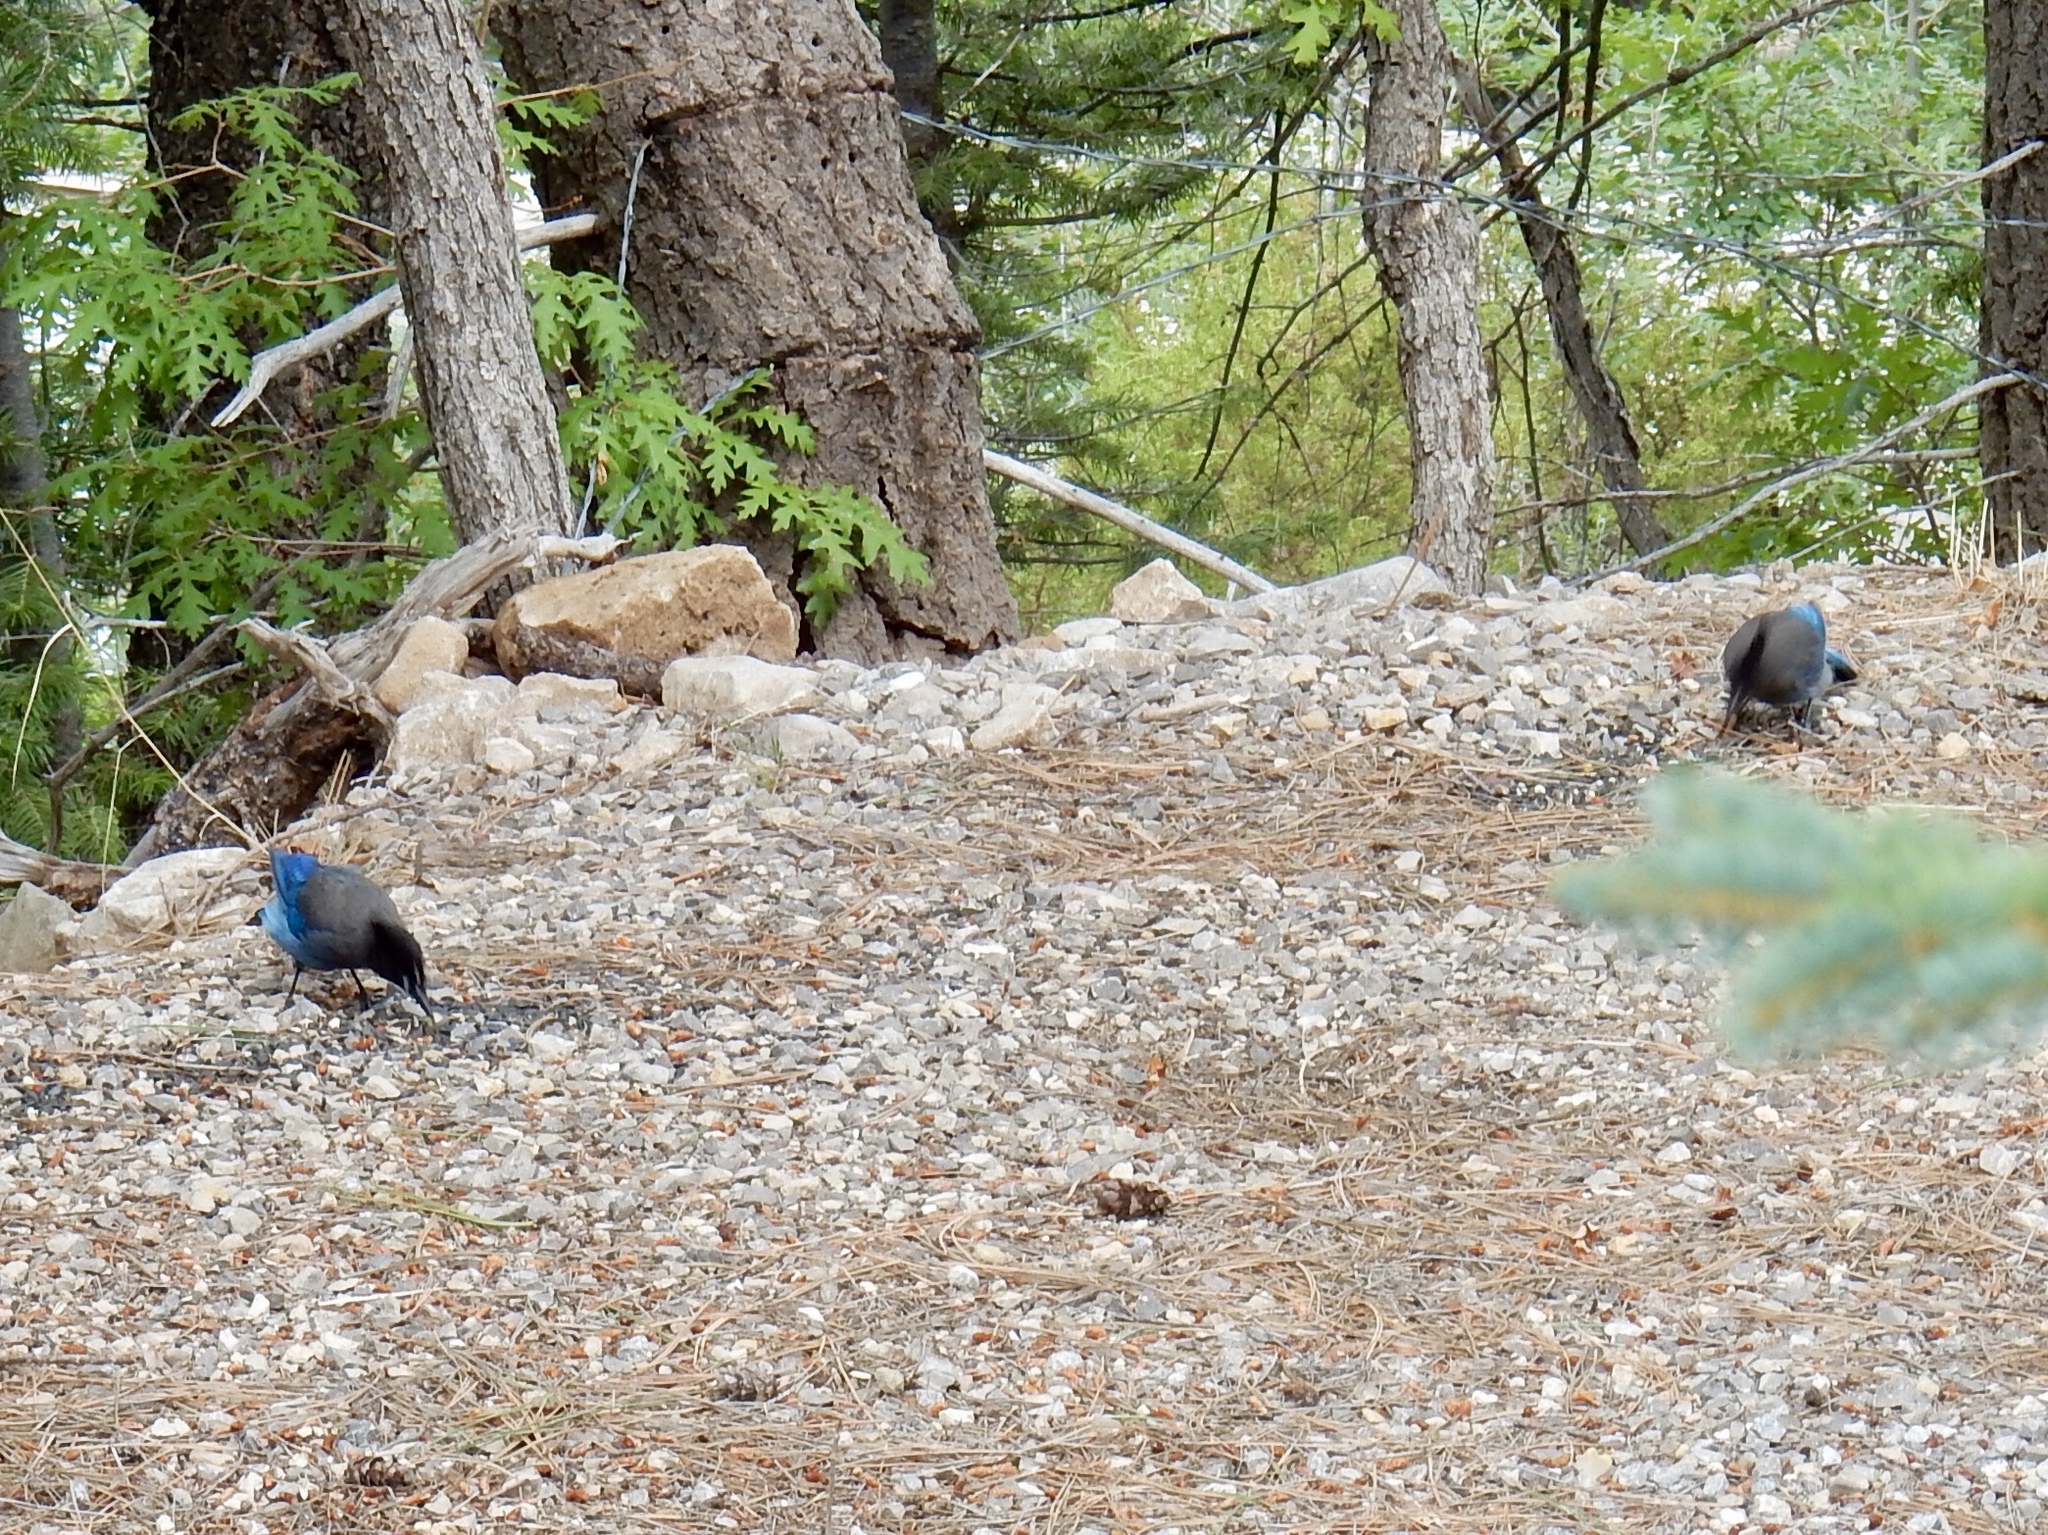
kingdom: Animalia
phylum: Chordata
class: Aves
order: Passeriformes
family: Corvidae
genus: Cyanocitta
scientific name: Cyanocitta stelleri
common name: Steller's jay
